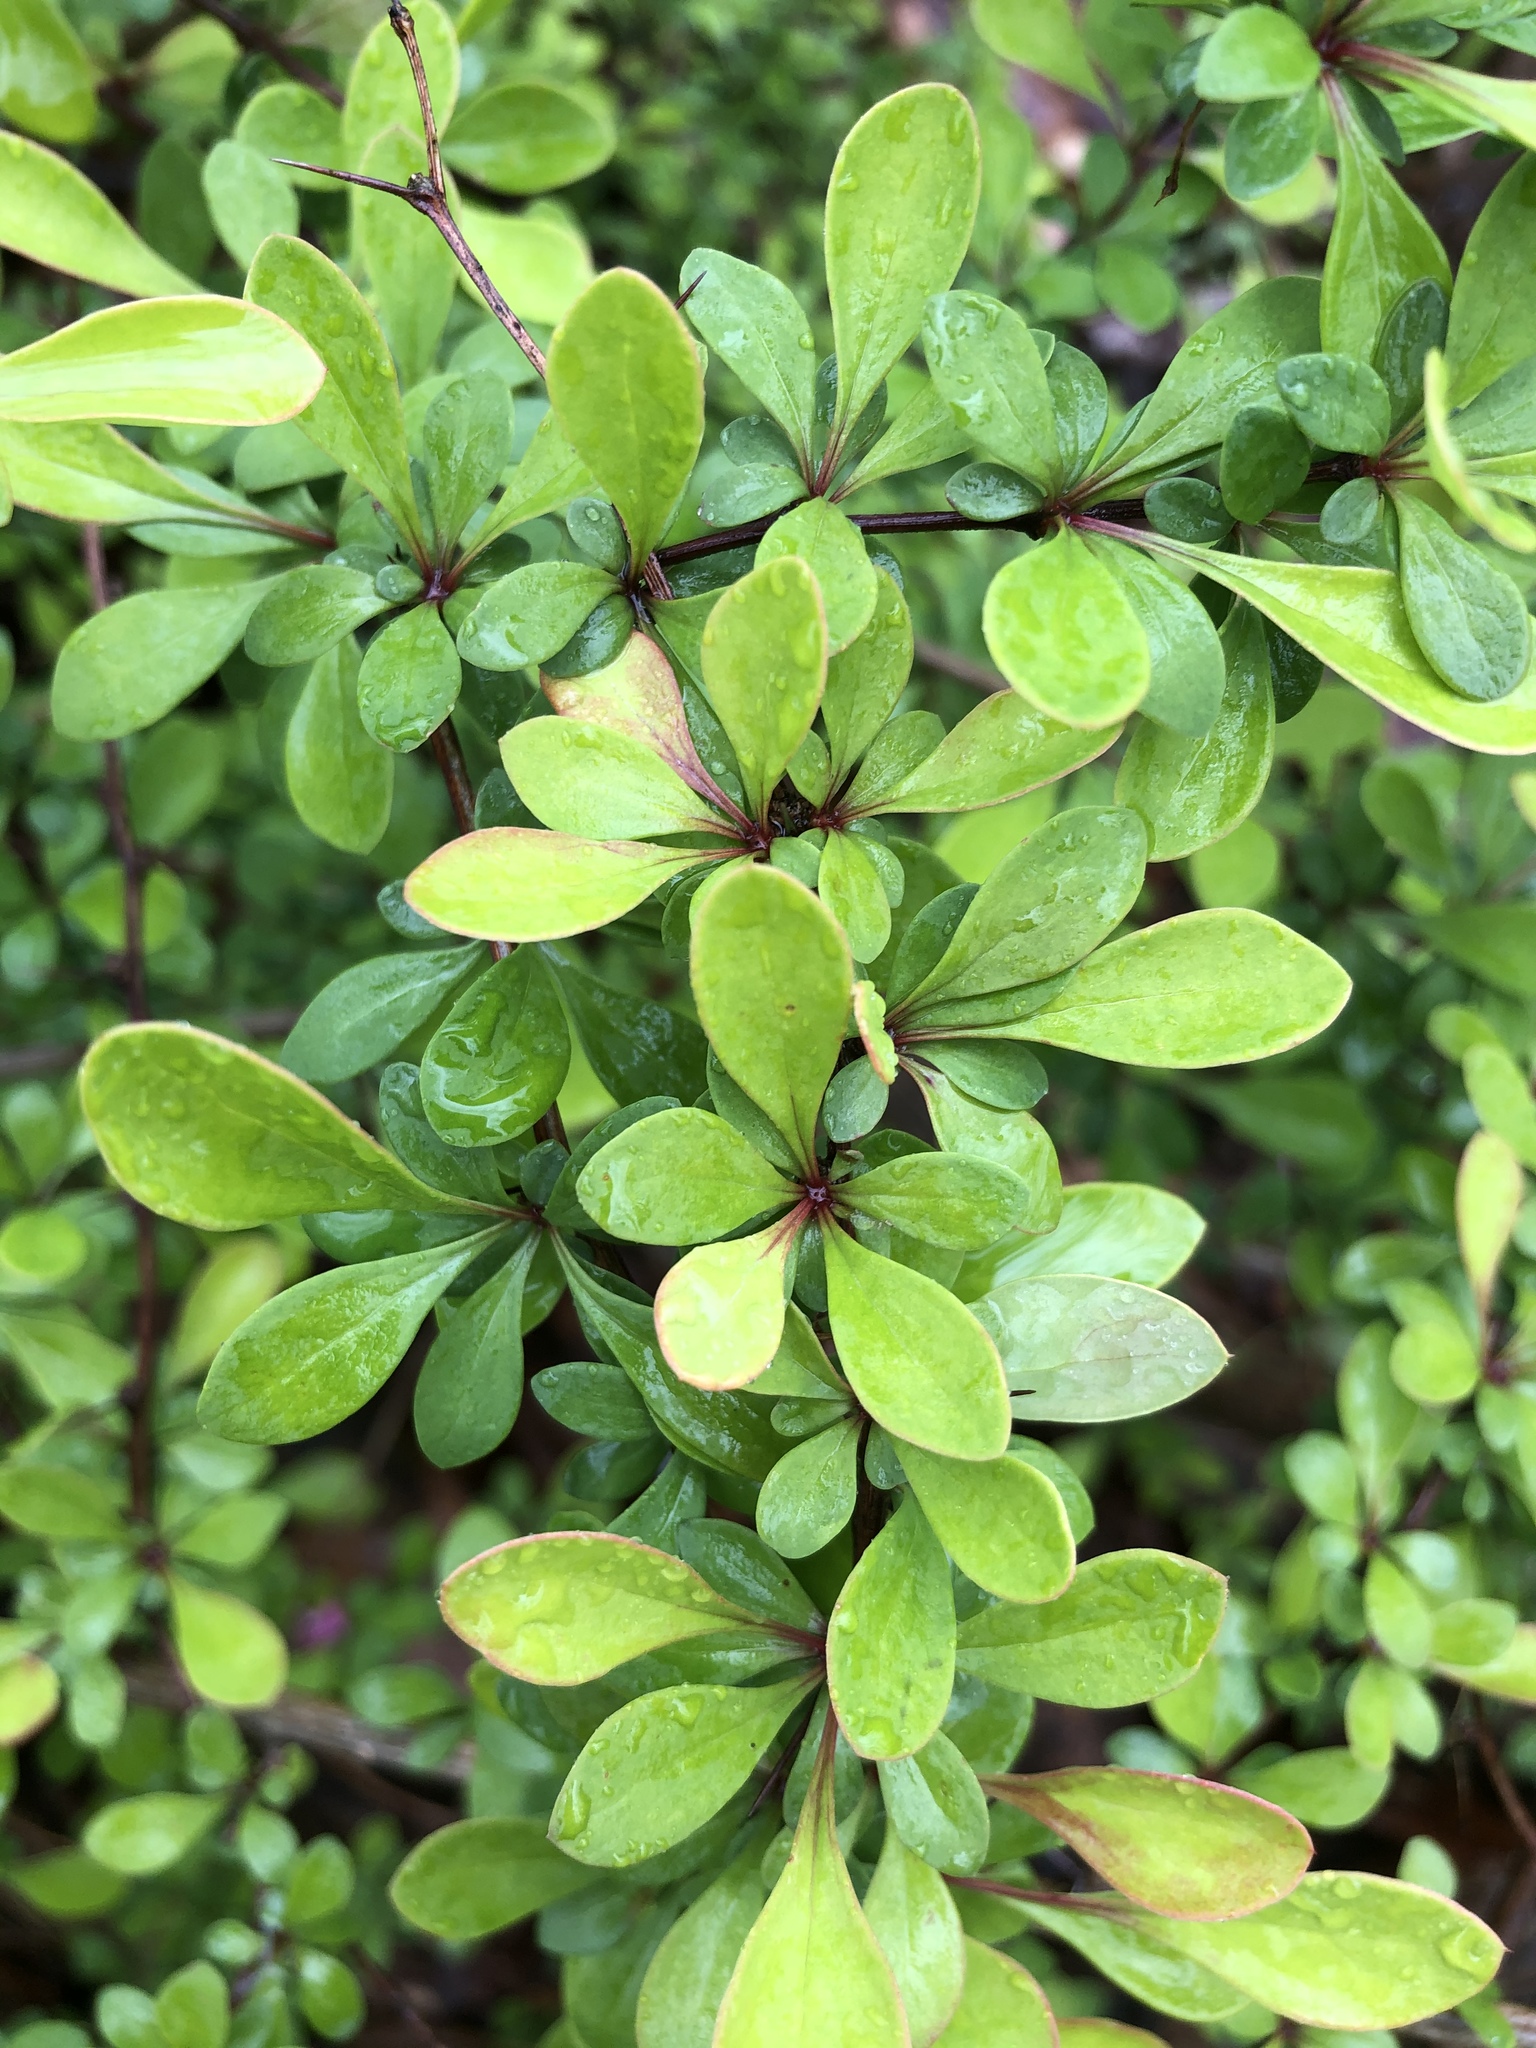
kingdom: Plantae
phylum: Tracheophyta
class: Magnoliopsida
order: Ranunculales
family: Berberidaceae
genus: Berberis
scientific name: Berberis thunbergii
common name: Japanese barberry
